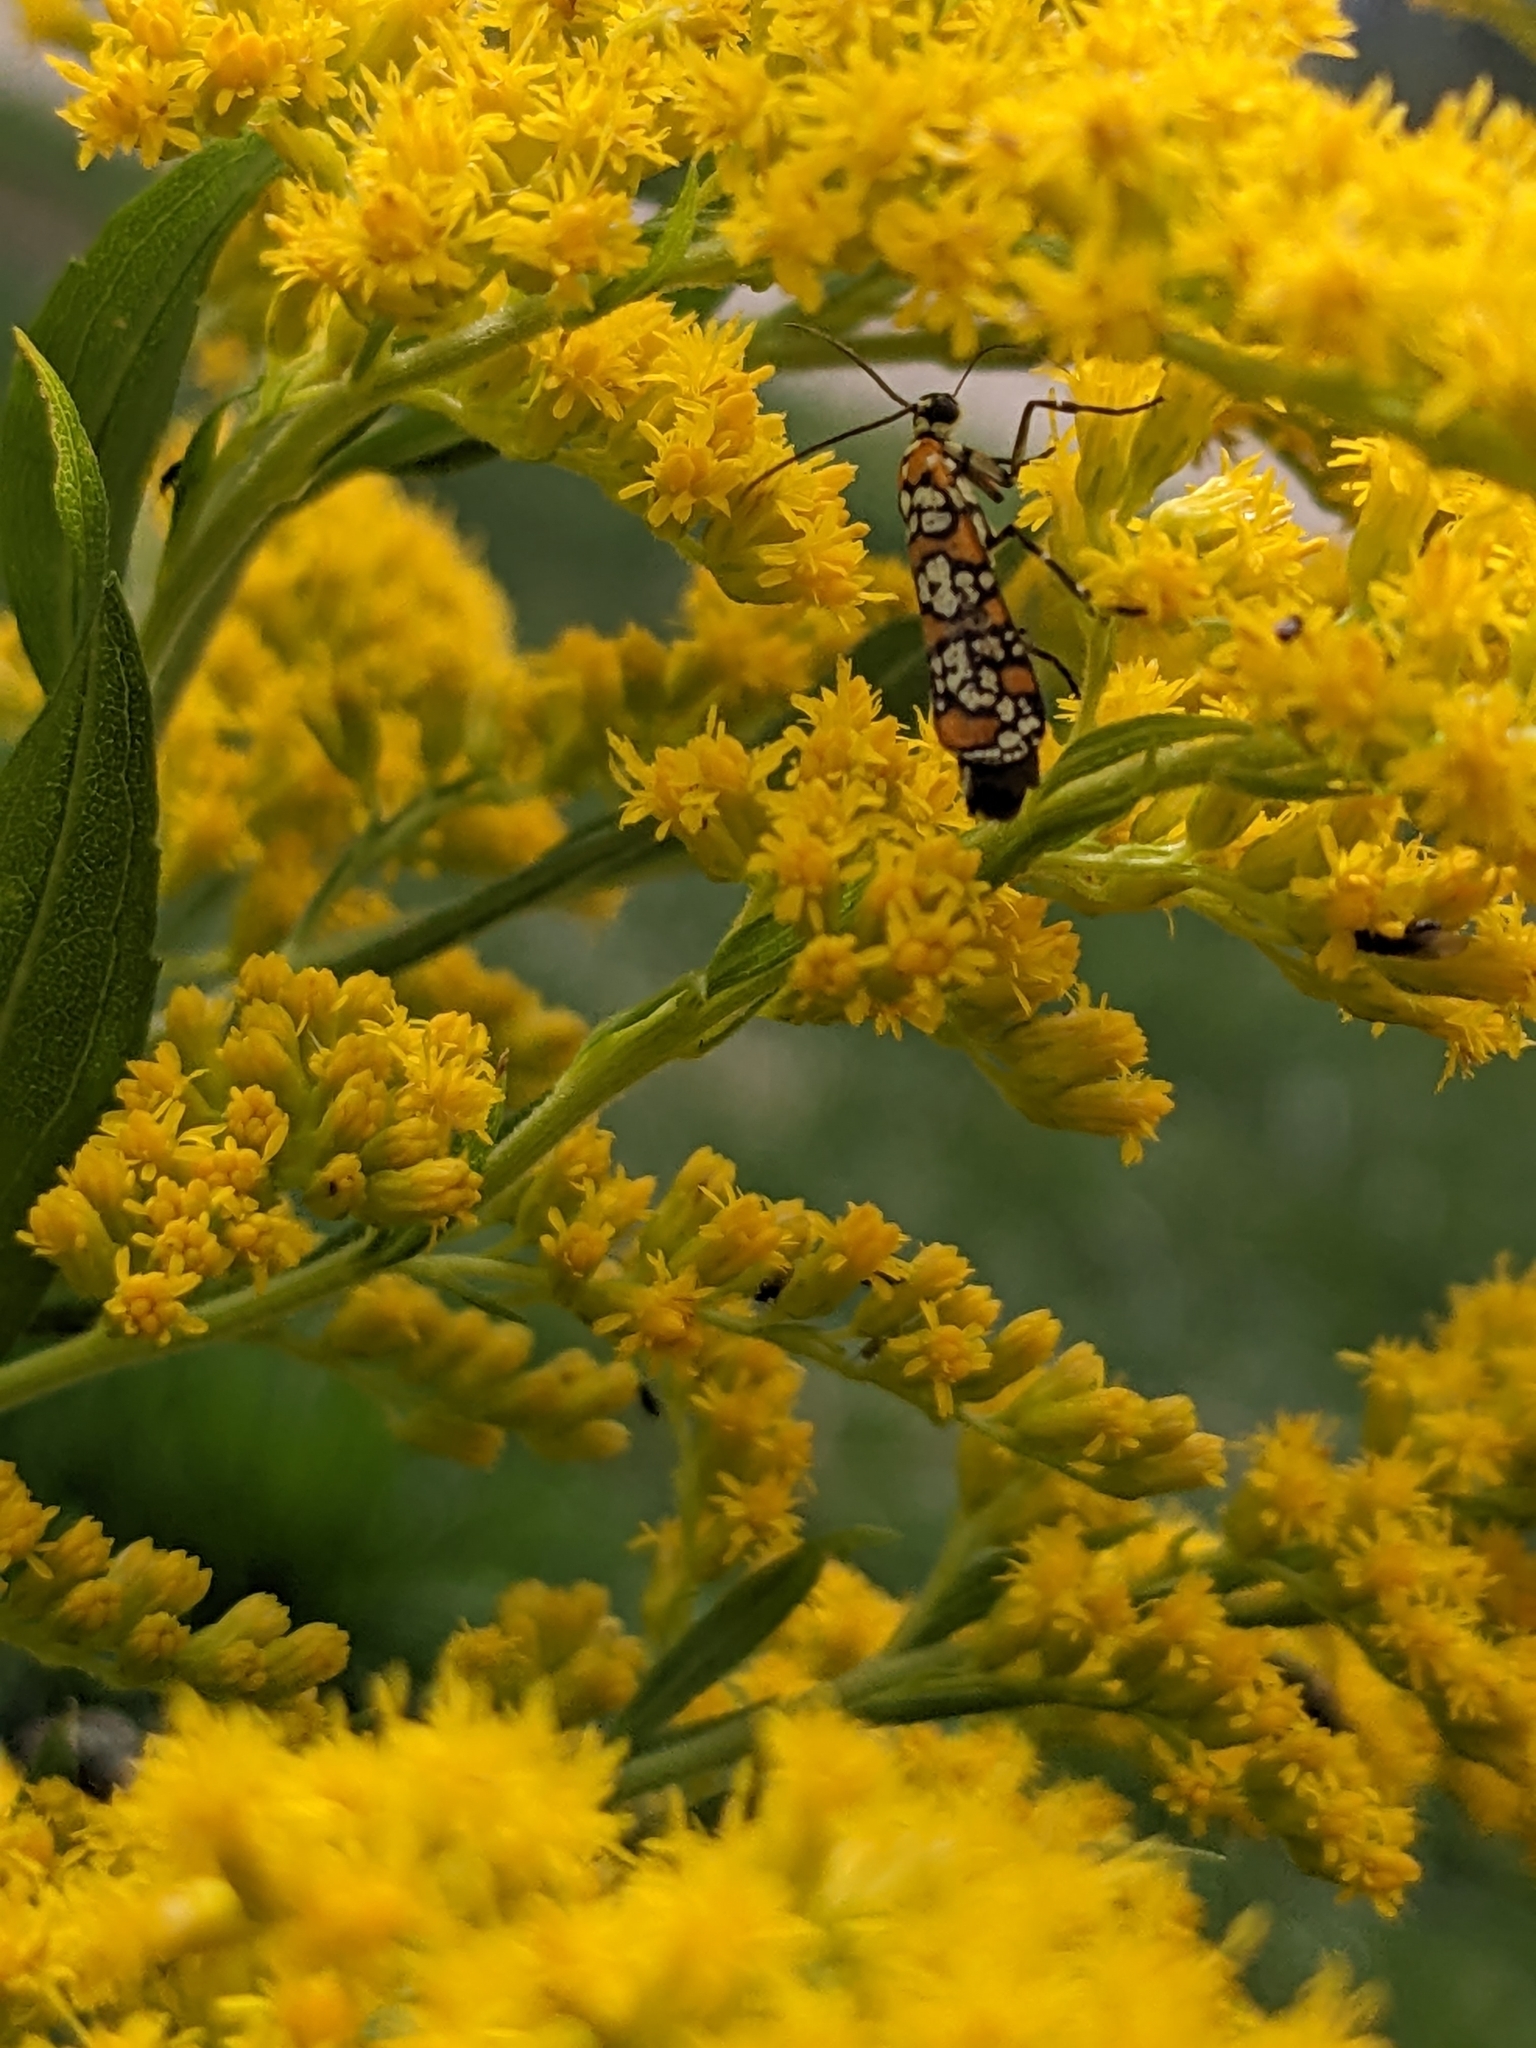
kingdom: Animalia
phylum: Arthropoda
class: Insecta
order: Lepidoptera
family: Attevidae
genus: Atteva
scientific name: Atteva punctella
